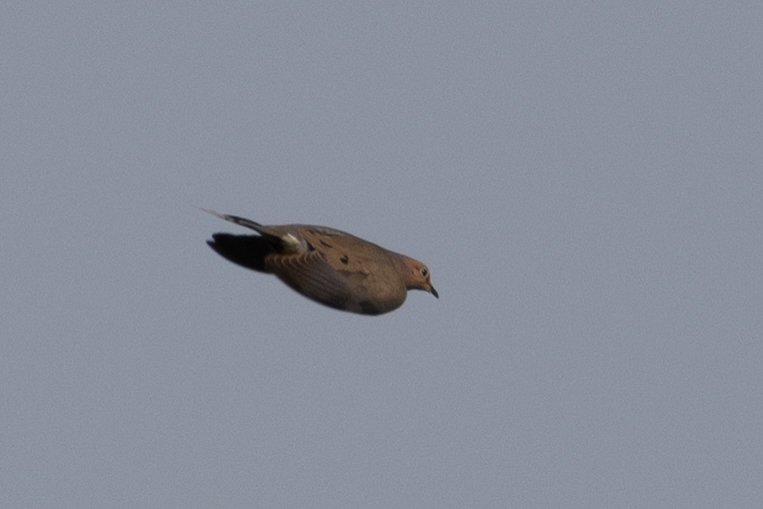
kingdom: Animalia
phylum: Chordata
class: Aves
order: Columbiformes
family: Columbidae
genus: Zenaida
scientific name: Zenaida macroura
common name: Mourning dove
